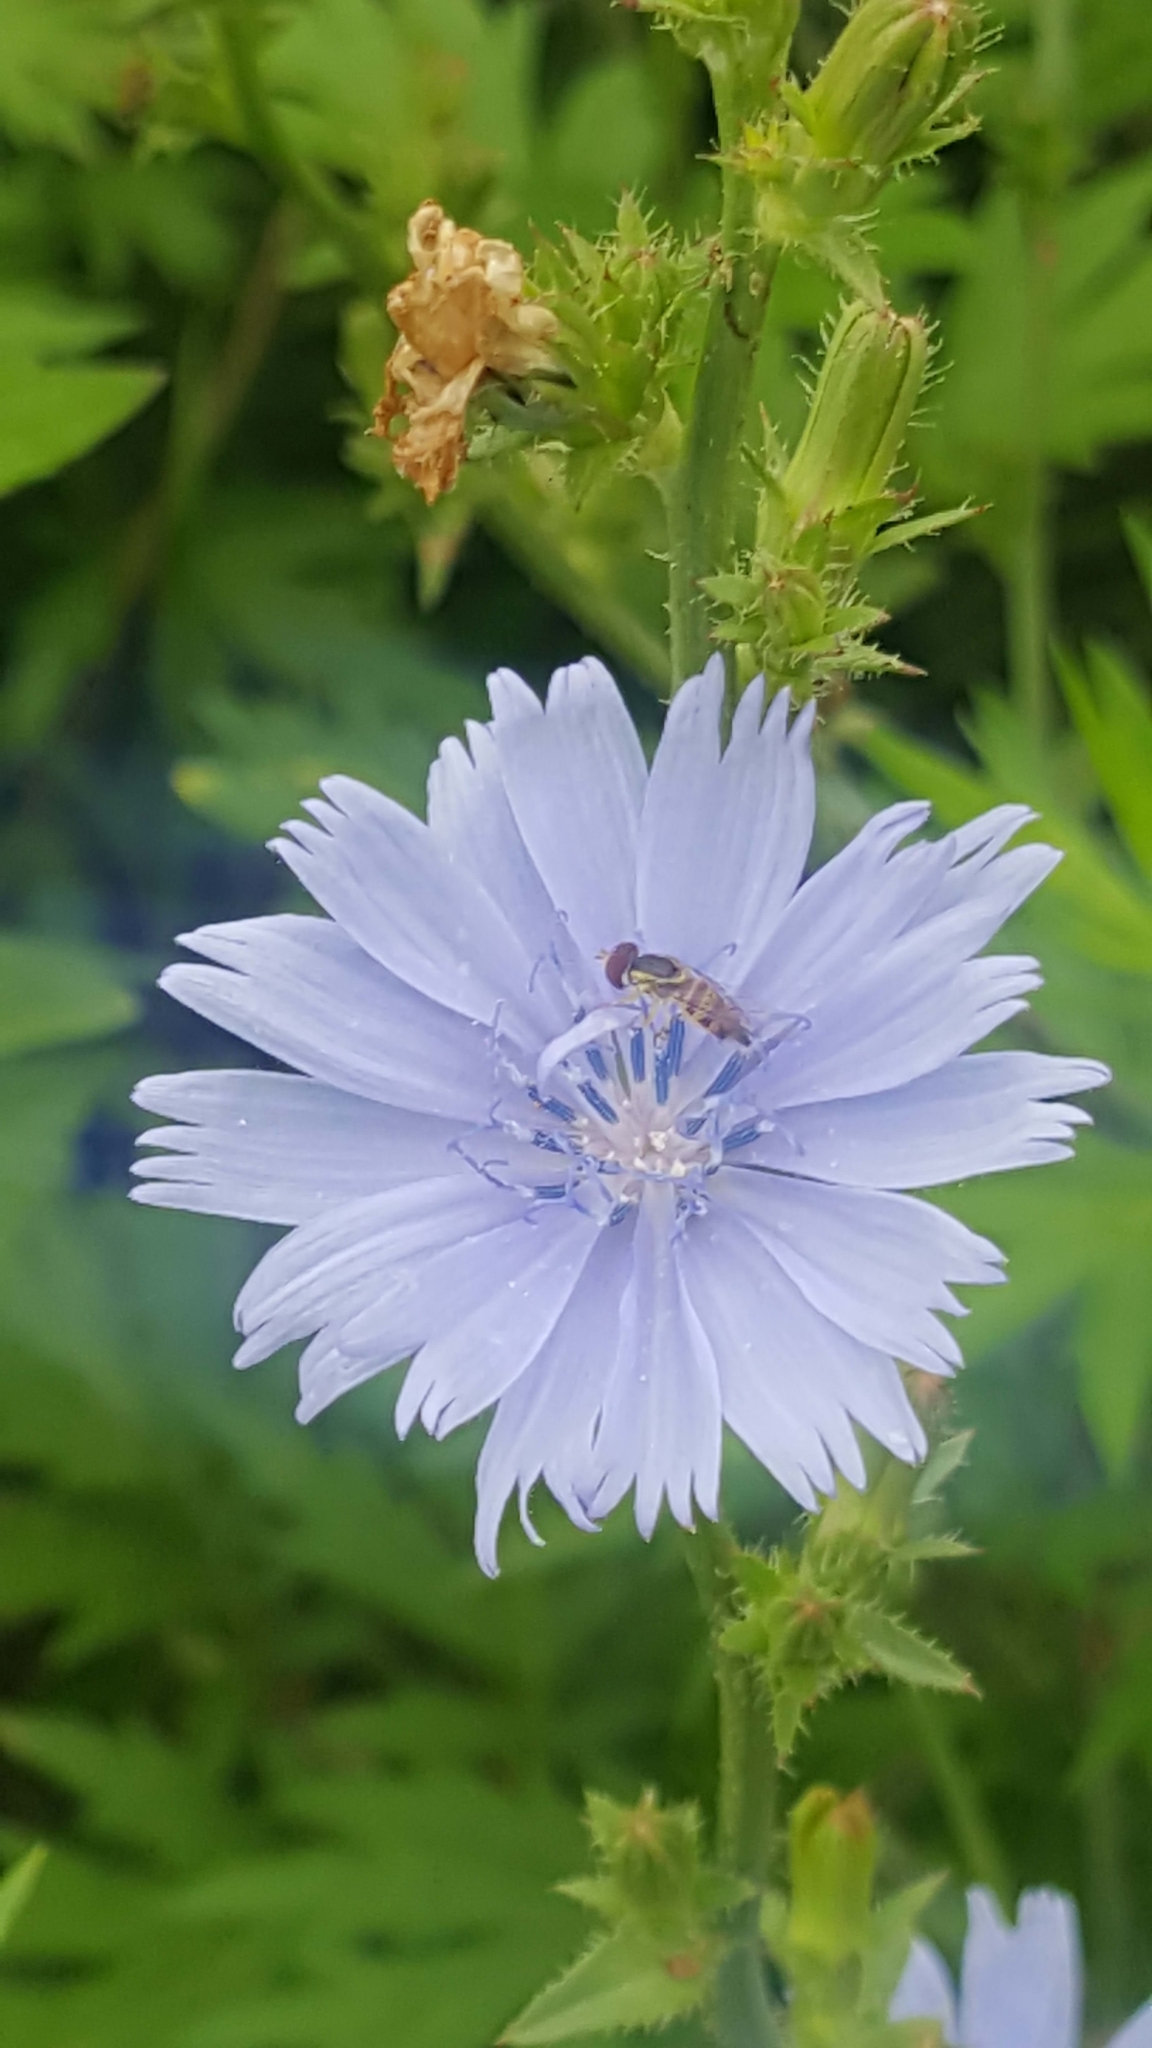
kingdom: Plantae
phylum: Tracheophyta
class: Magnoliopsida
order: Asterales
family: Asteraceae
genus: Cichorium
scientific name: Cichorium intybus
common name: Chicory
